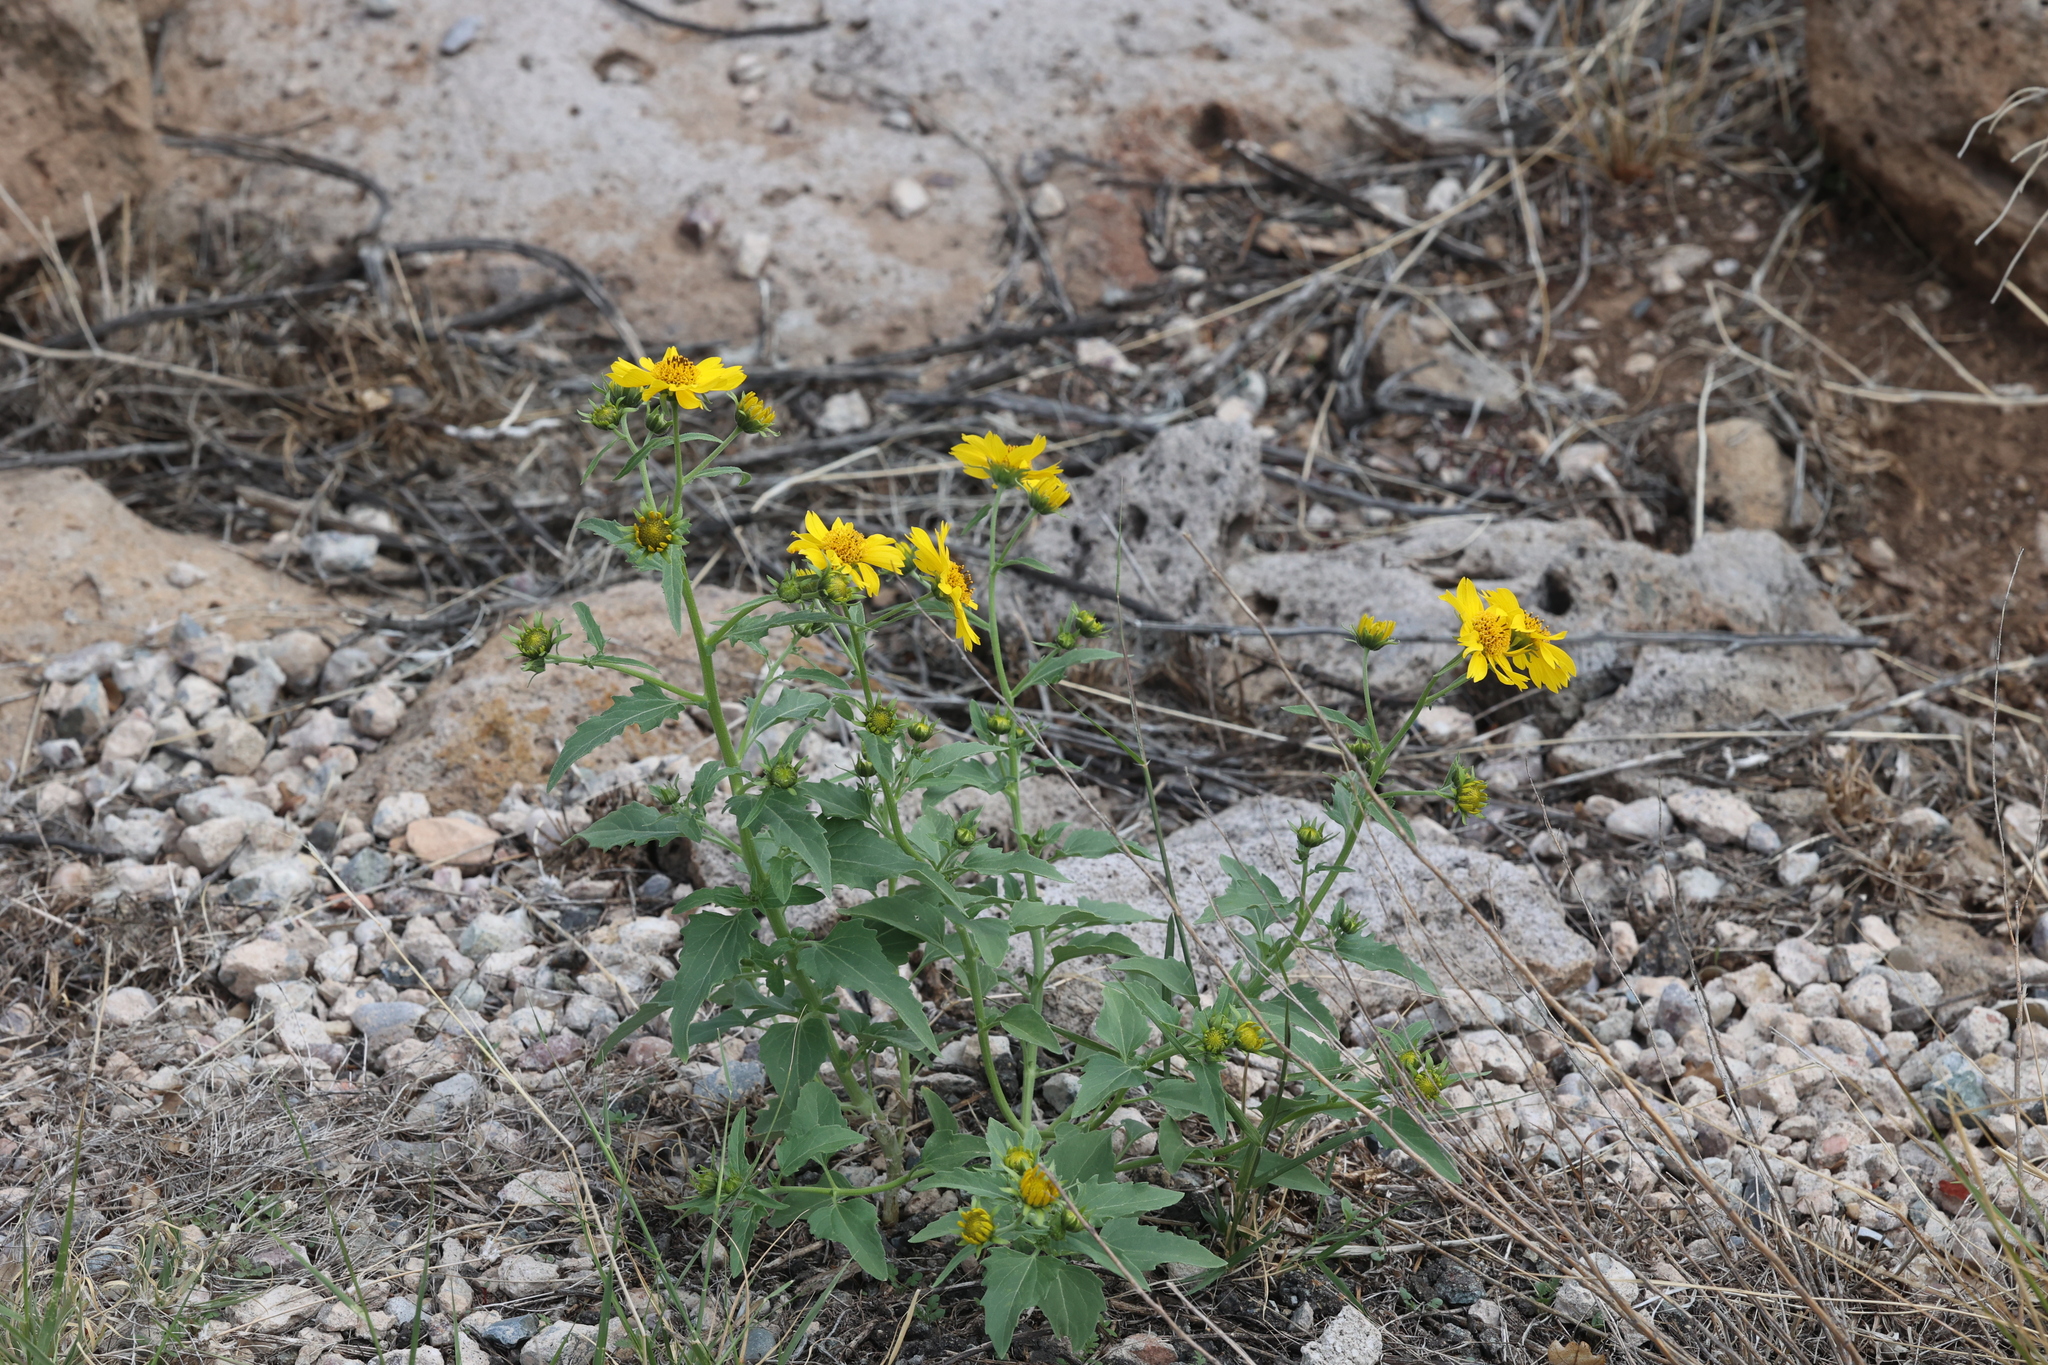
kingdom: Plantae
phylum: Tracheophyta
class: Magnoliopsida
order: Asterales
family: Asteraceae
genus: Verbesina
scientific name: Verbesina encelioides
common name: Golden crownbeard
